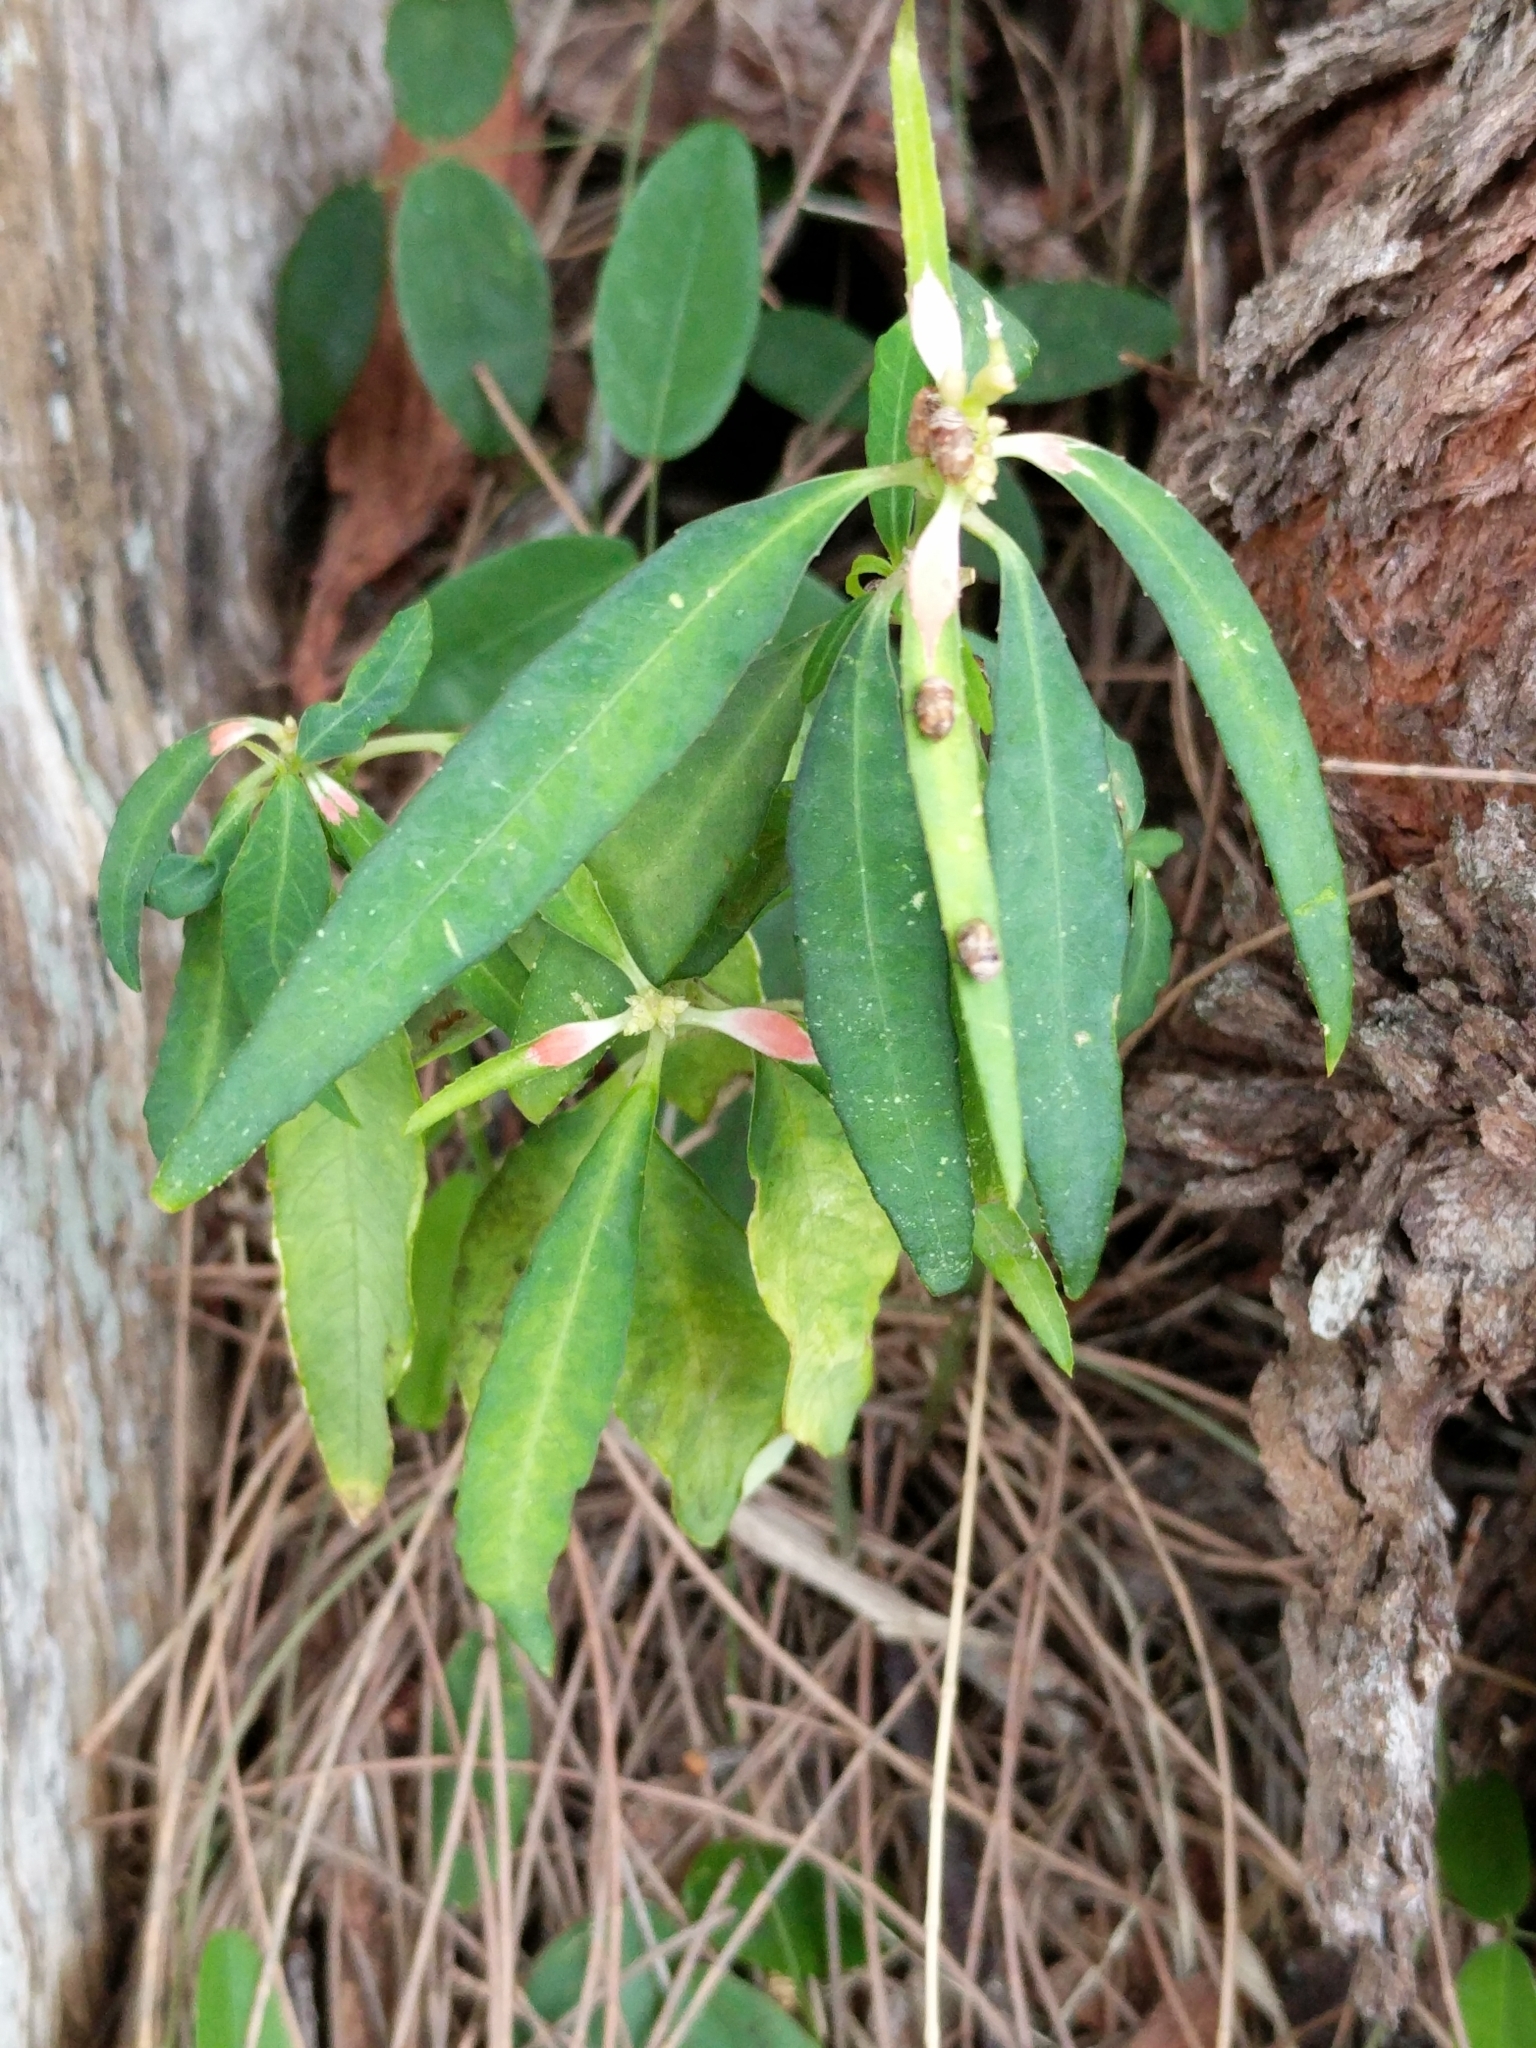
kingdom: Plantae
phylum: Tracheophyta
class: Magnoliopsida
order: Malpighiales
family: Euphorbiaceae
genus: Euphorbia
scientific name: Euphorbia heterophylla
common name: Mexican fireplant
